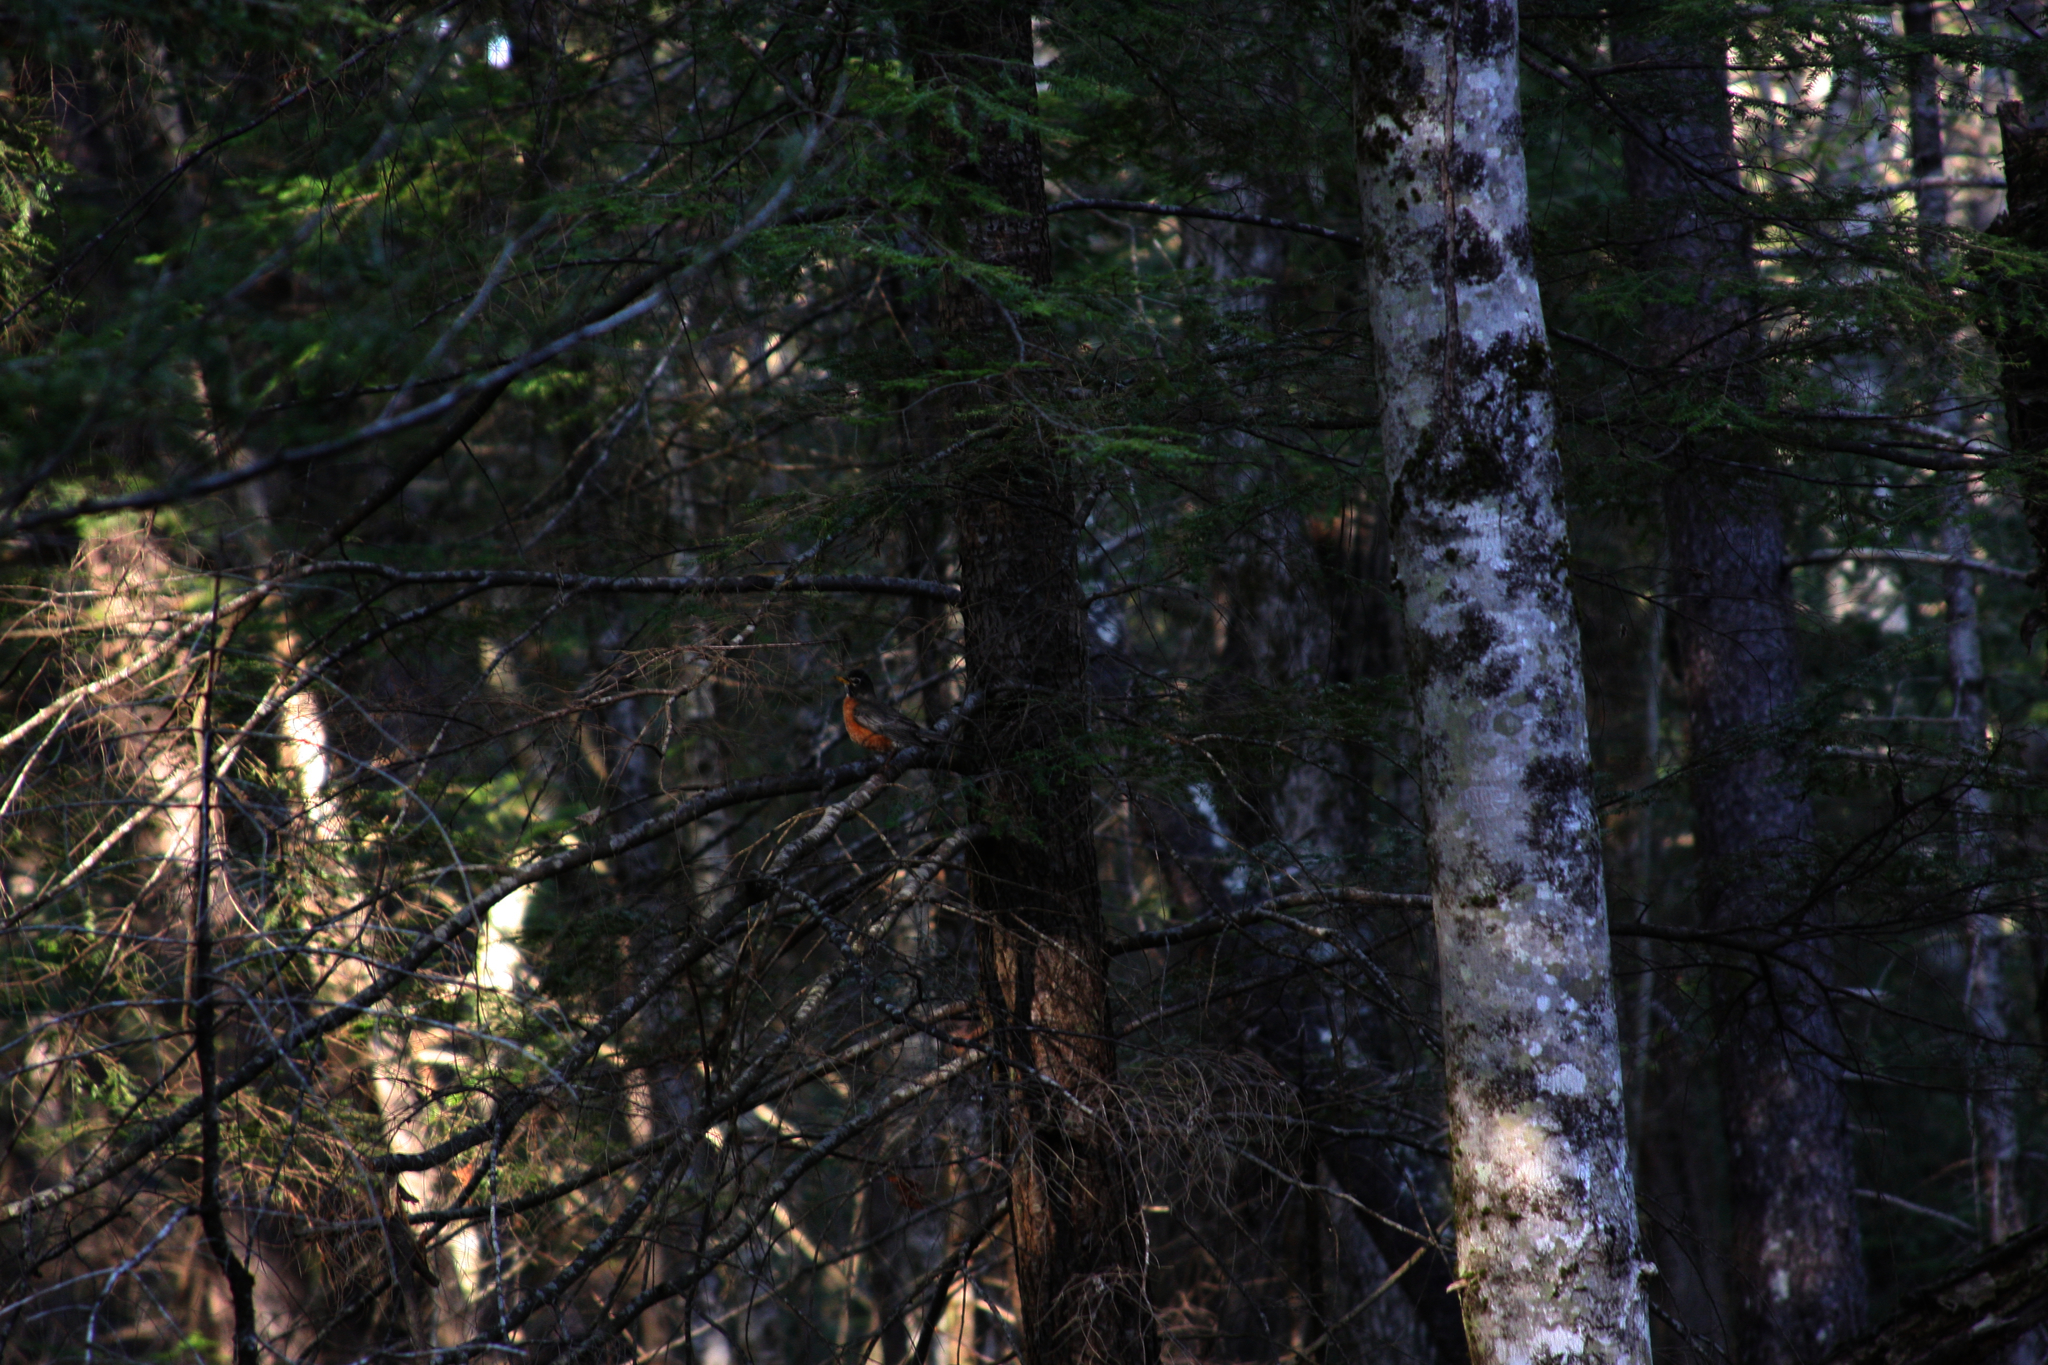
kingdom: Animalia
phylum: Chordata
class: Aves
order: Passeriformes
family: Turdidae
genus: Turdus
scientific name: Turdus migratorius
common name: American robin
